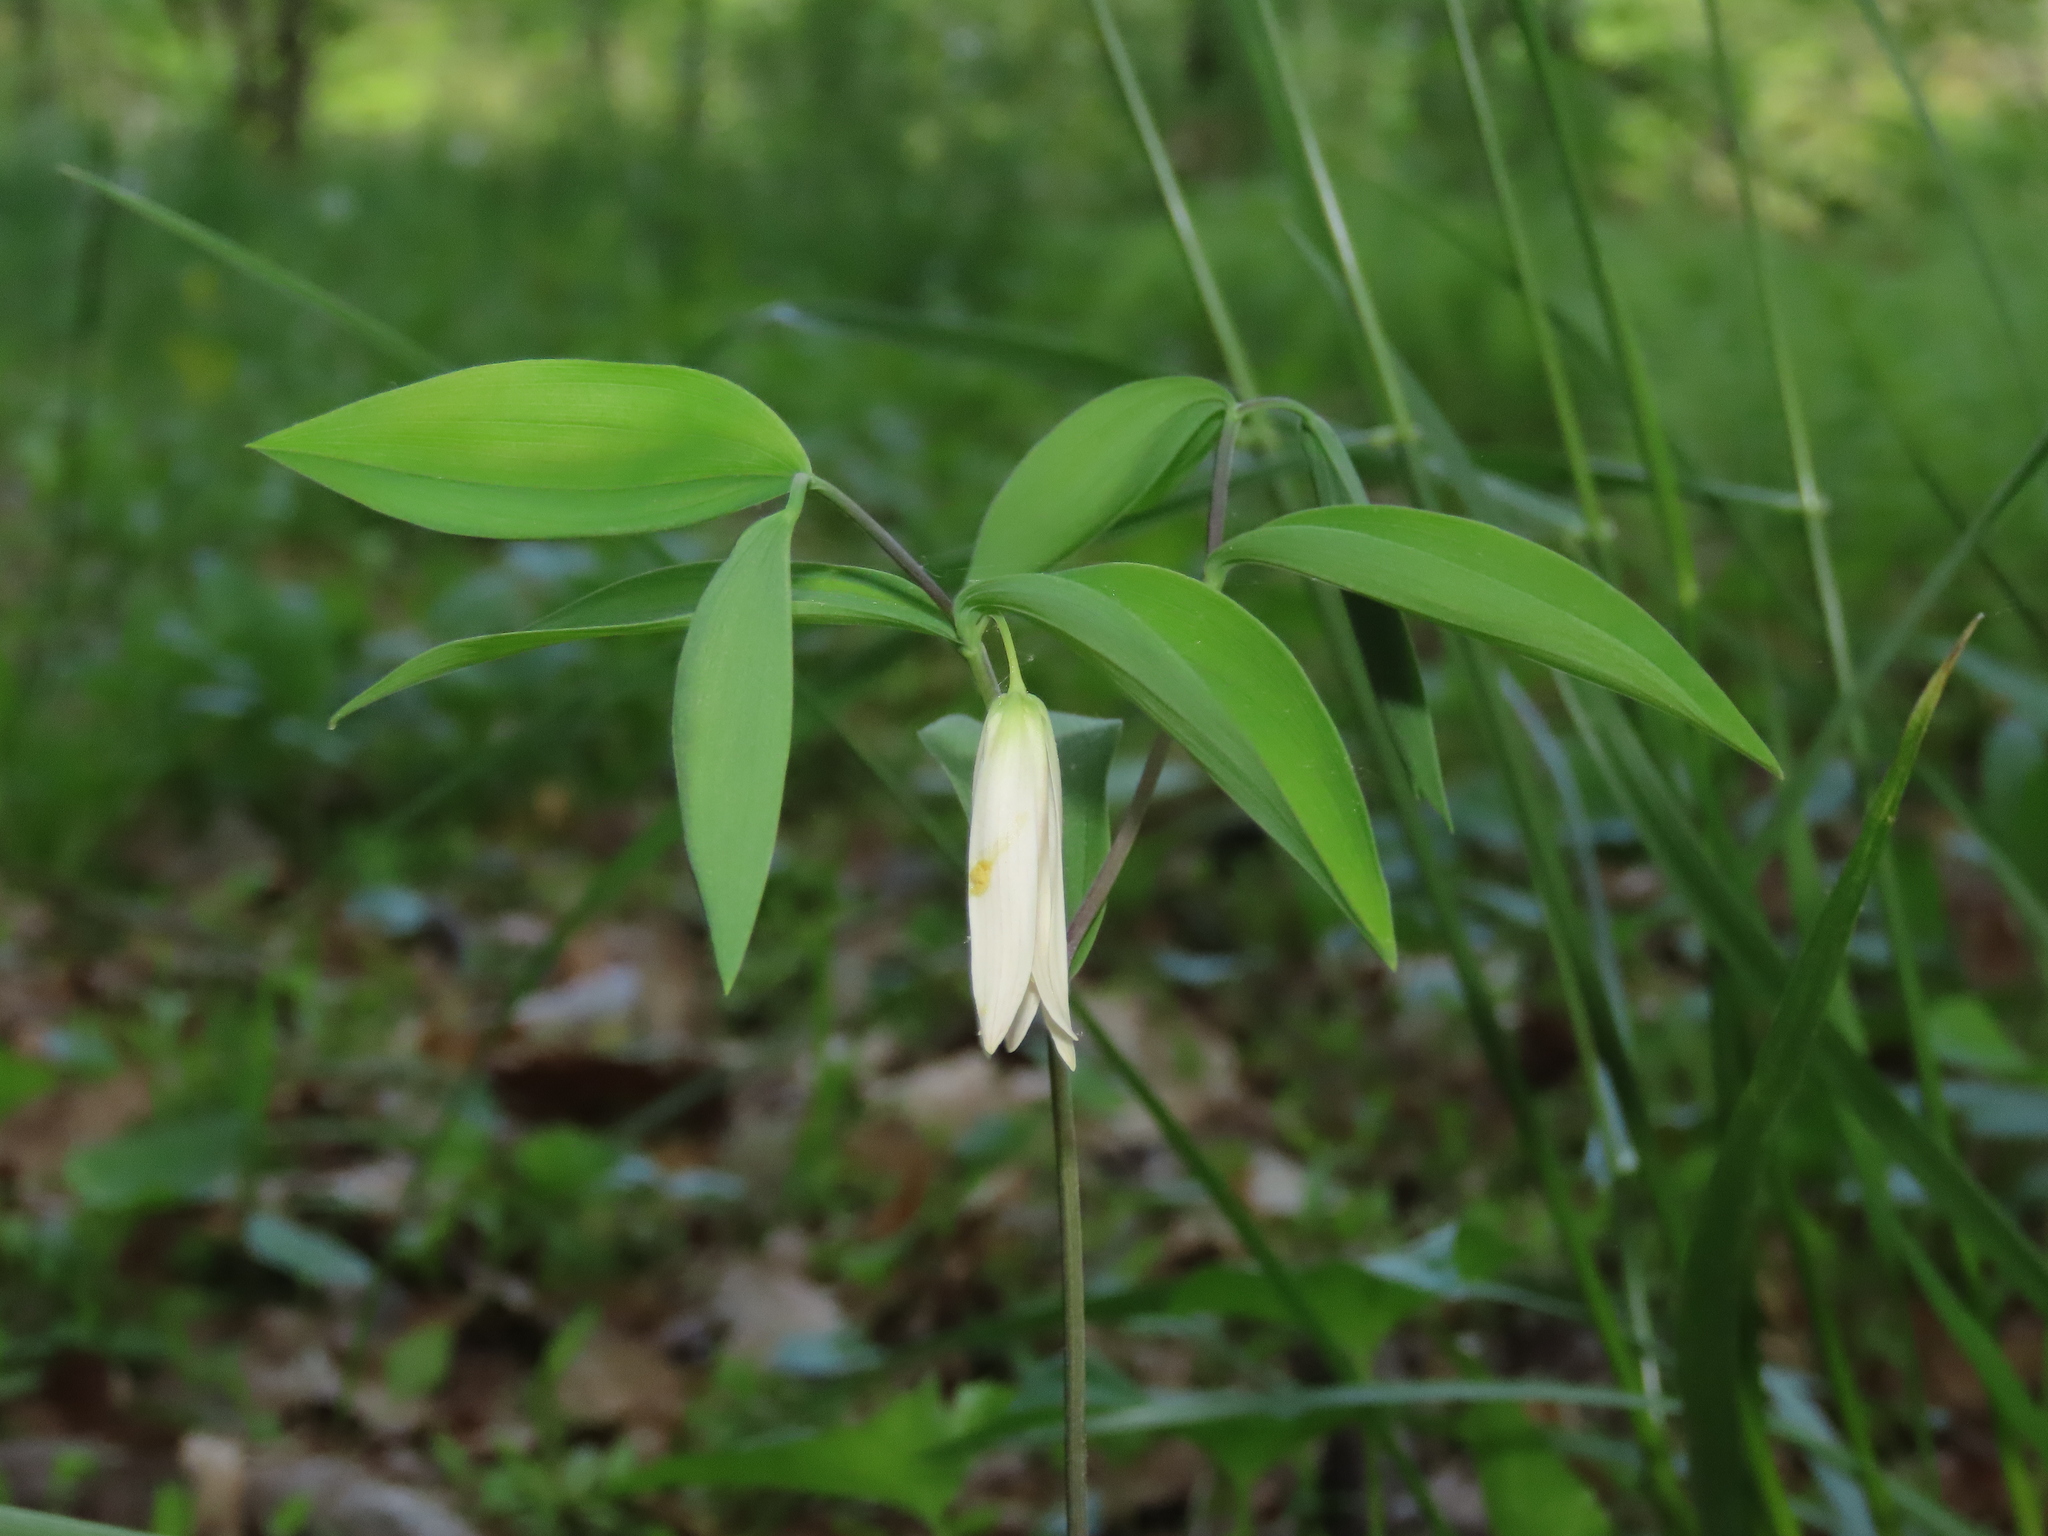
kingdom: Plantae
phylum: Tracheophyta
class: Liliopsida
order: Liliales
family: Colchicaceae
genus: Uvularia
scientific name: Uvularia sessilifolia
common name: Straw-lily
